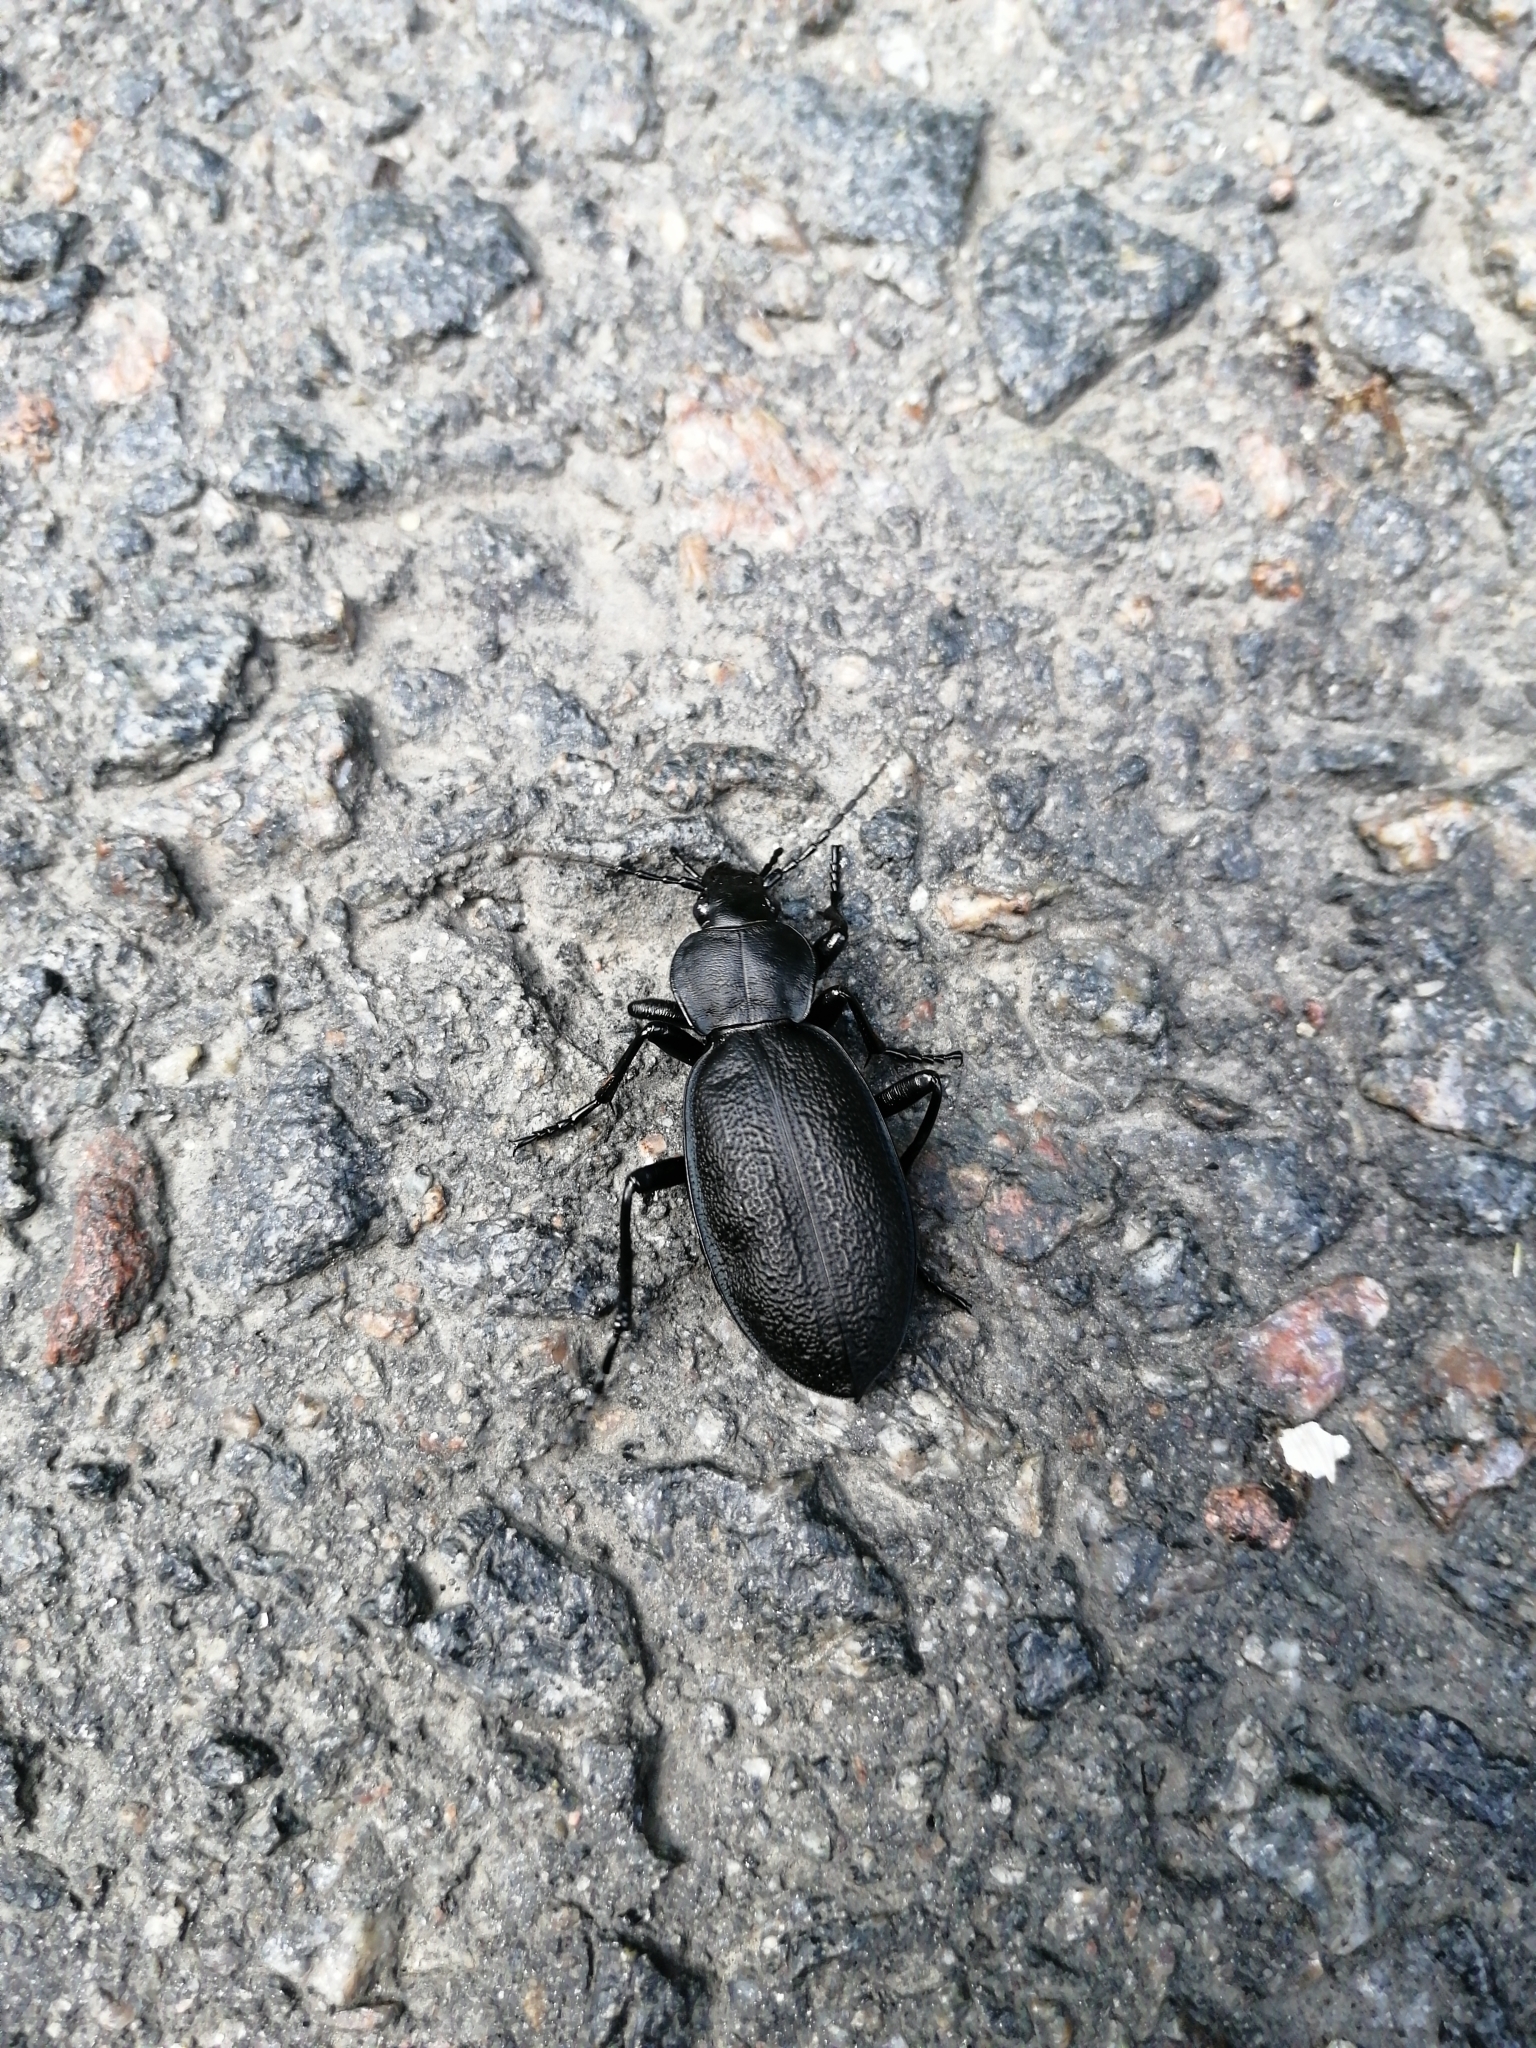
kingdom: Animalia
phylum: Arthropoda
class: Insecta
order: Coleoptera
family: Carabidae
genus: Carabus
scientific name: Carabus coriaceus
